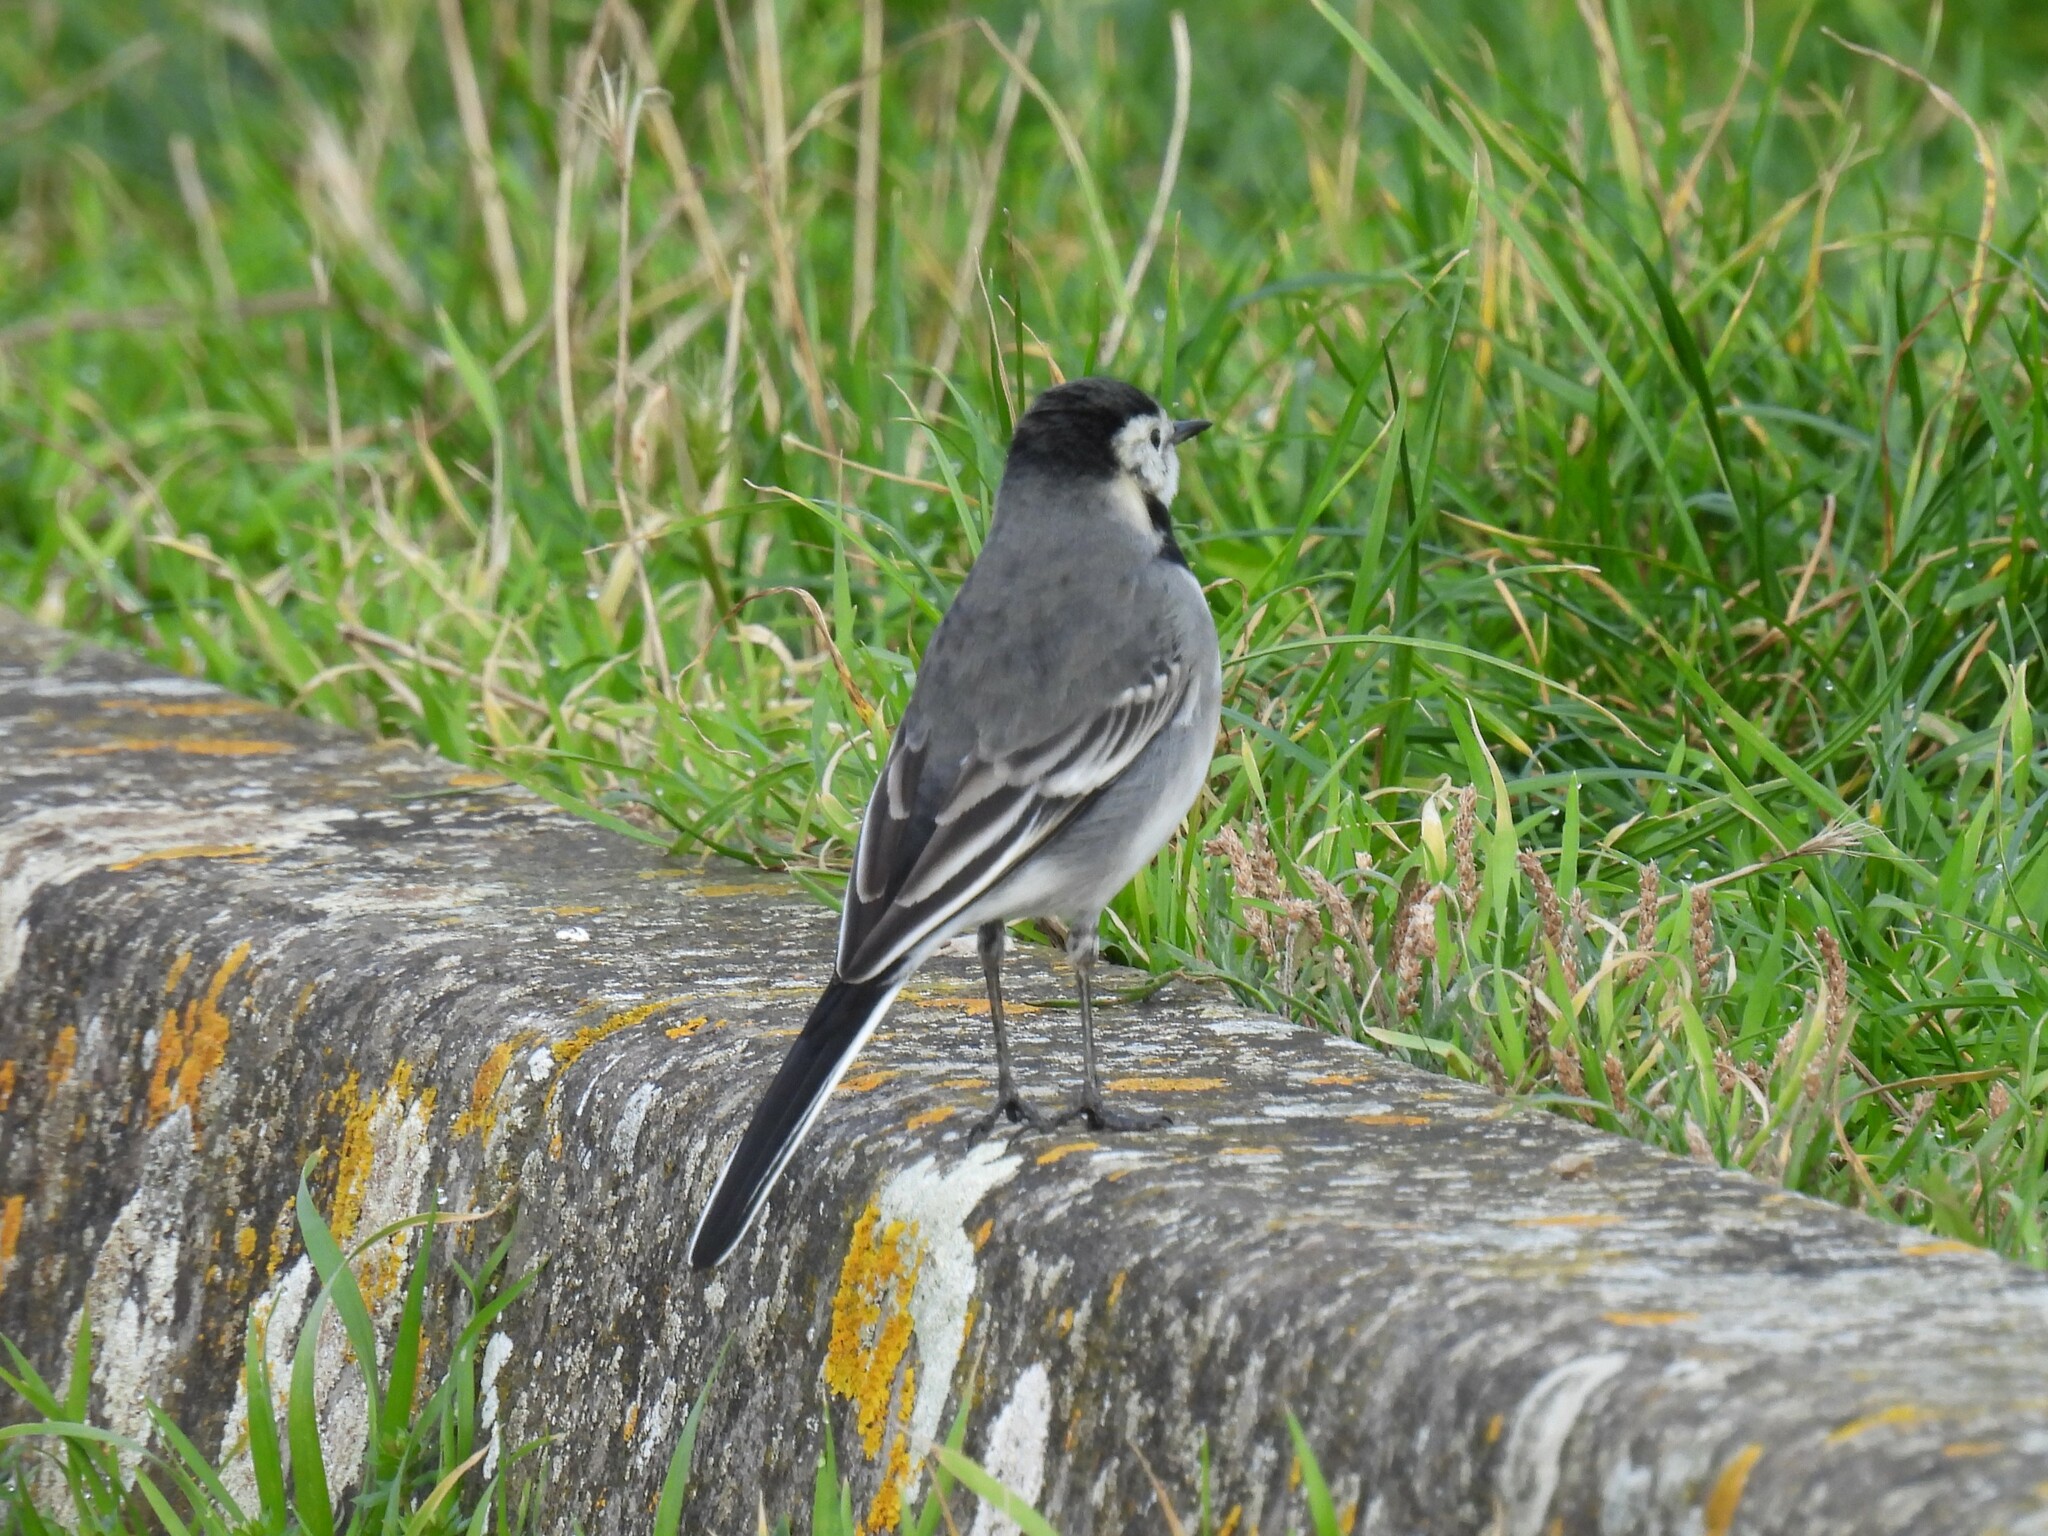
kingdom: Animalia
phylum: Chordata
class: Aves
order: Passeriformes
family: Motacillidae
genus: Motacilla
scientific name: Motacilla alba
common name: White wagtail
